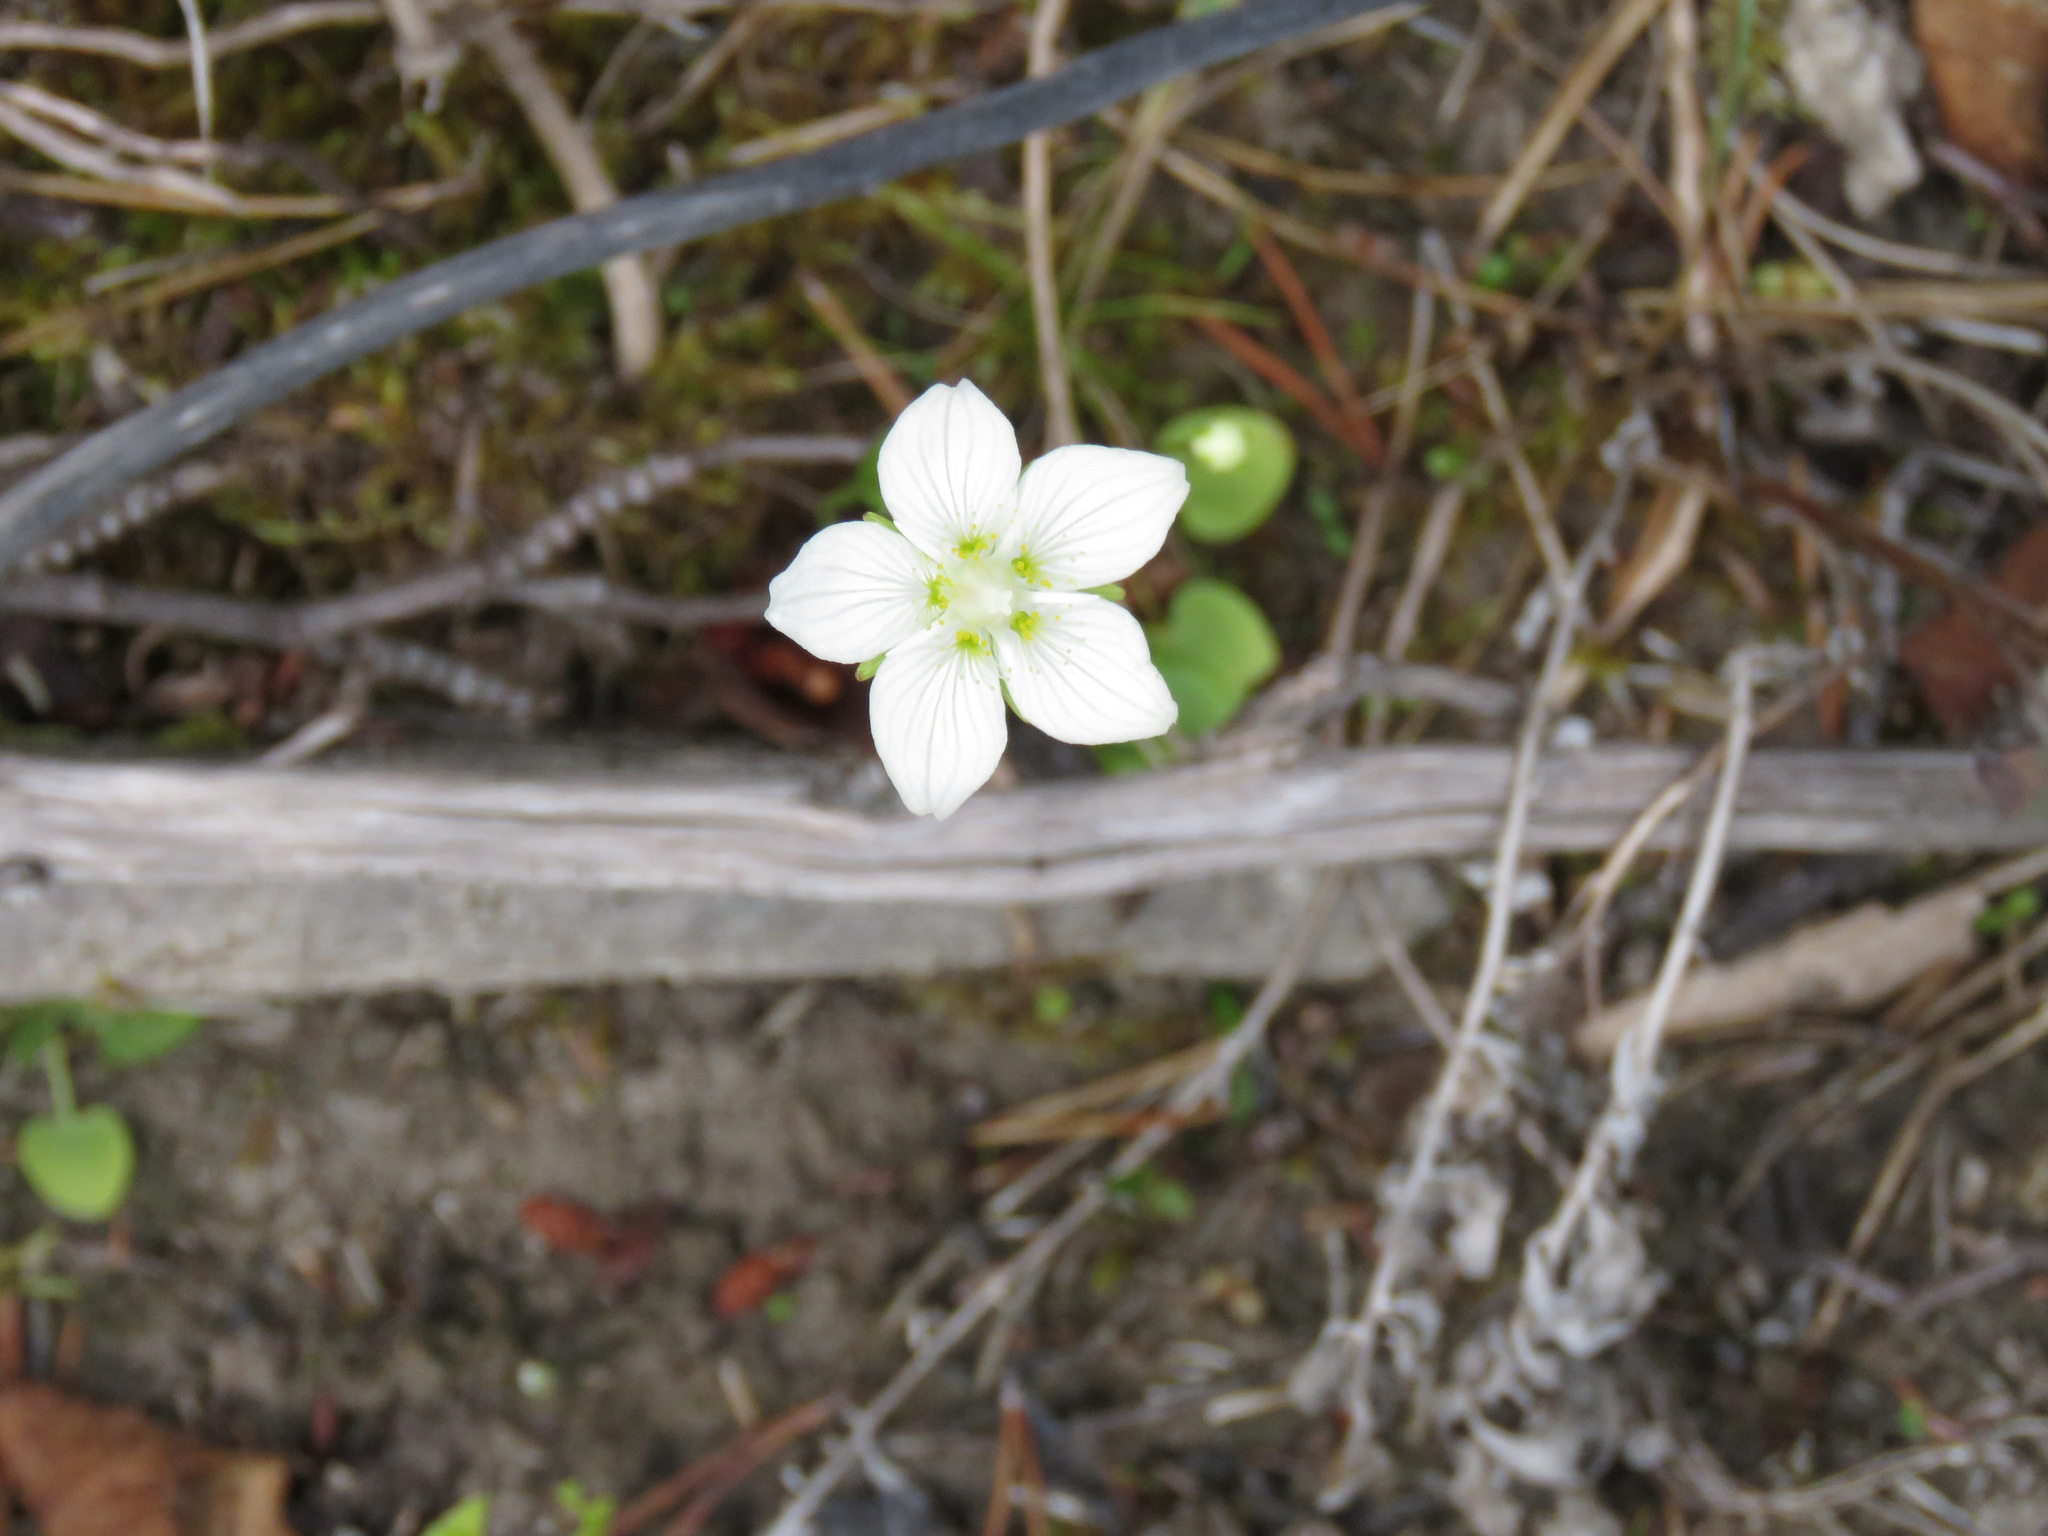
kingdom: Plantae
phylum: Tracheophyta
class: Magnoliopsida
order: Celastrales
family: Parnassiaceae
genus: Parnassia
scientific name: Parnassia palustris
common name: Grass-of-parnassus
